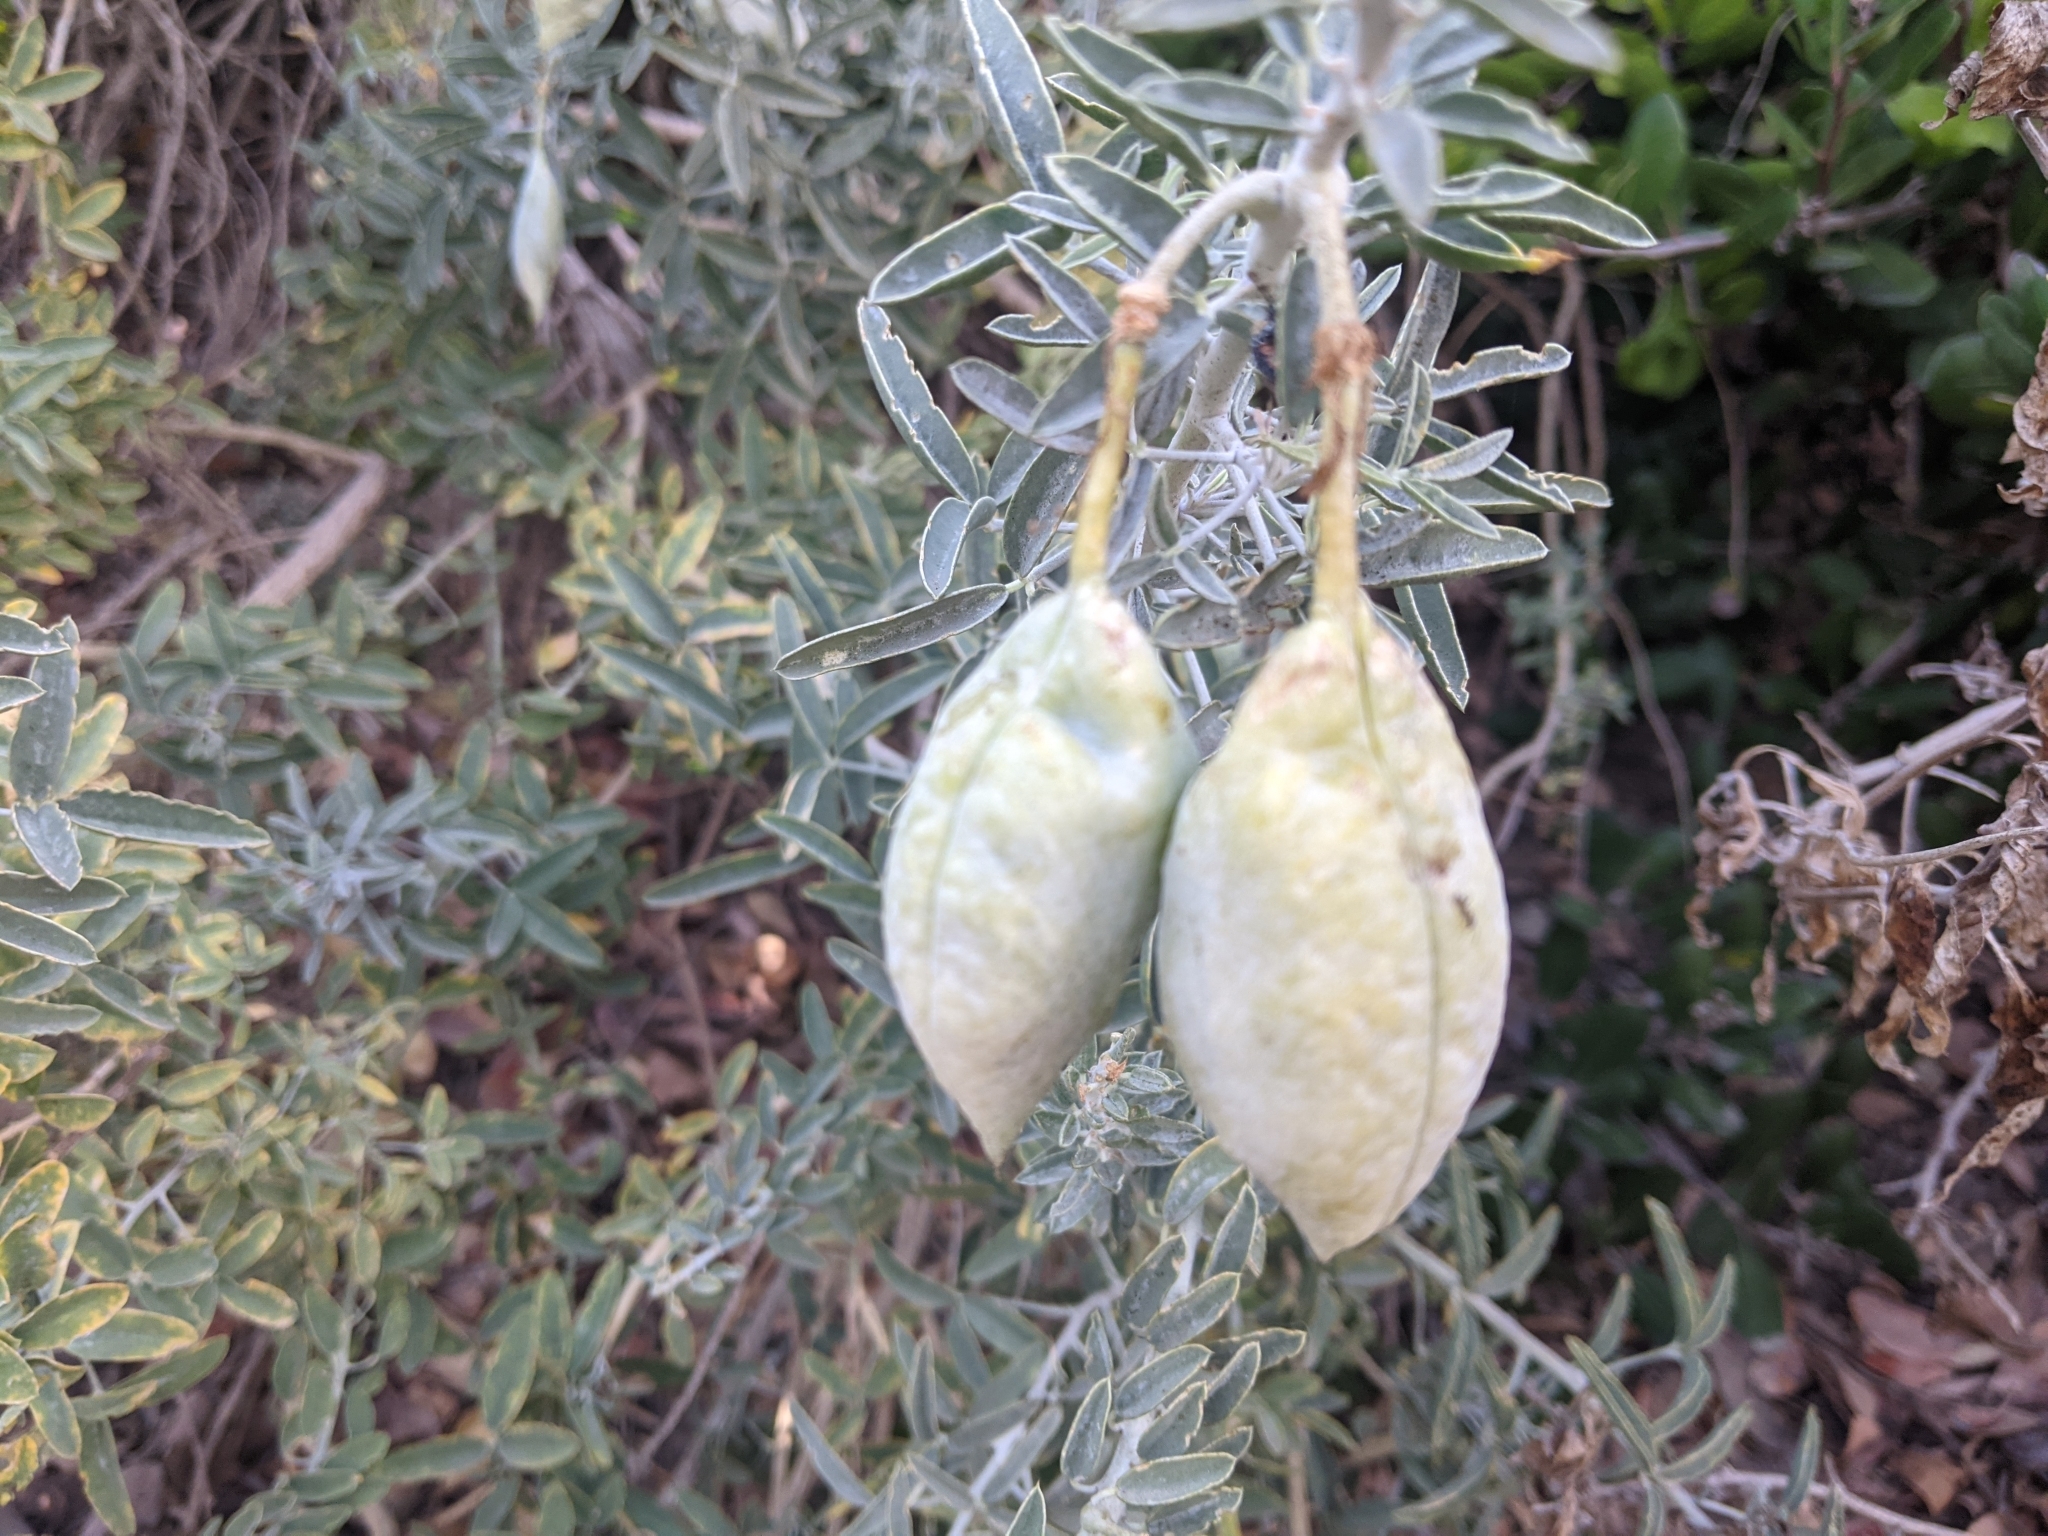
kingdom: Plantae
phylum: Tracheophyta
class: Magnoliopsida
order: Brassicales
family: Cleomaceae
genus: Cleomella
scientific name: Cleomella arborea
